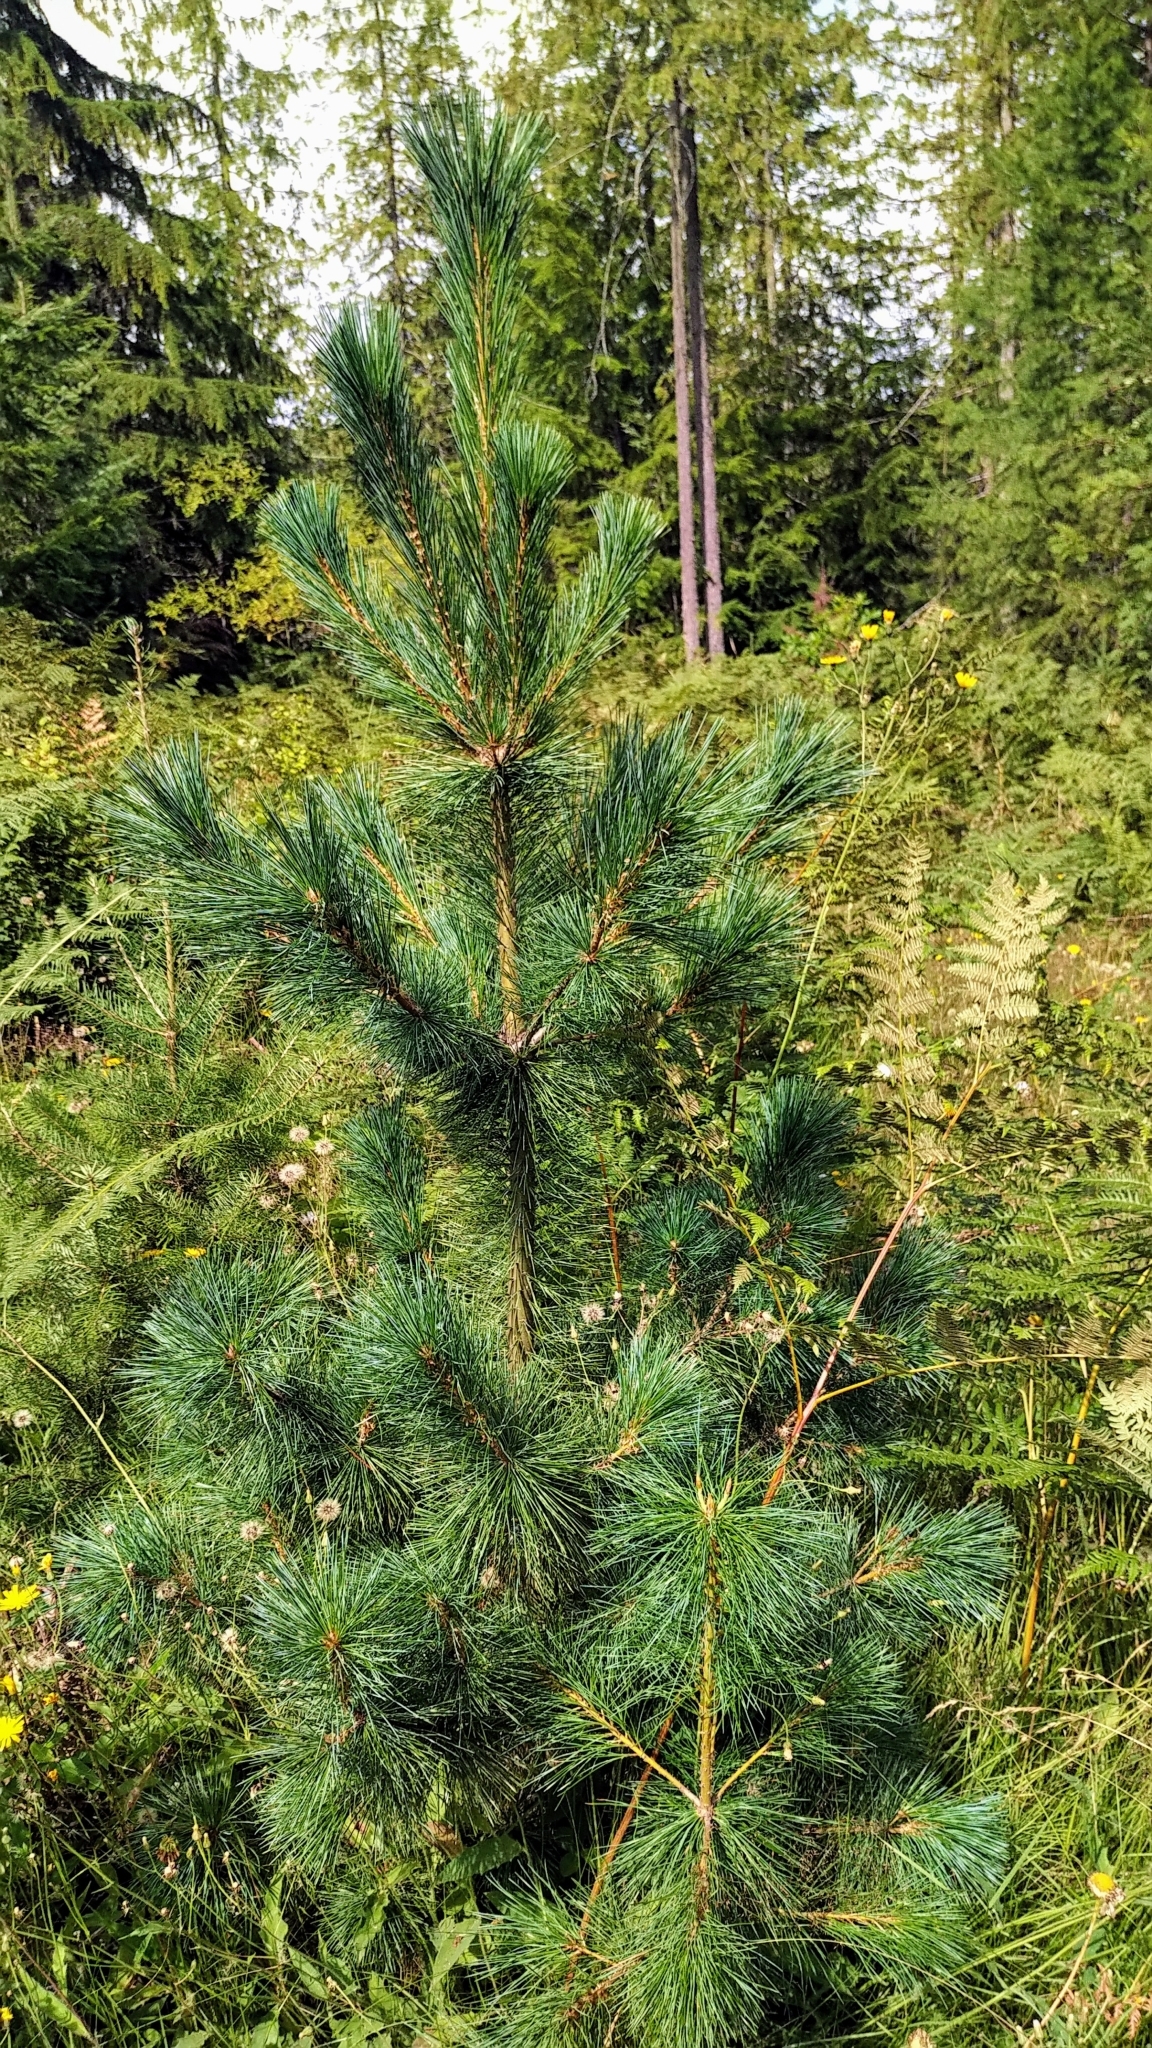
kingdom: Plantae
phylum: Tracheophyta
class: Pinopsida
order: Pinales
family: Pinaceae
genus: Pinus
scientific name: Pinus monticola
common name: Western white pine
